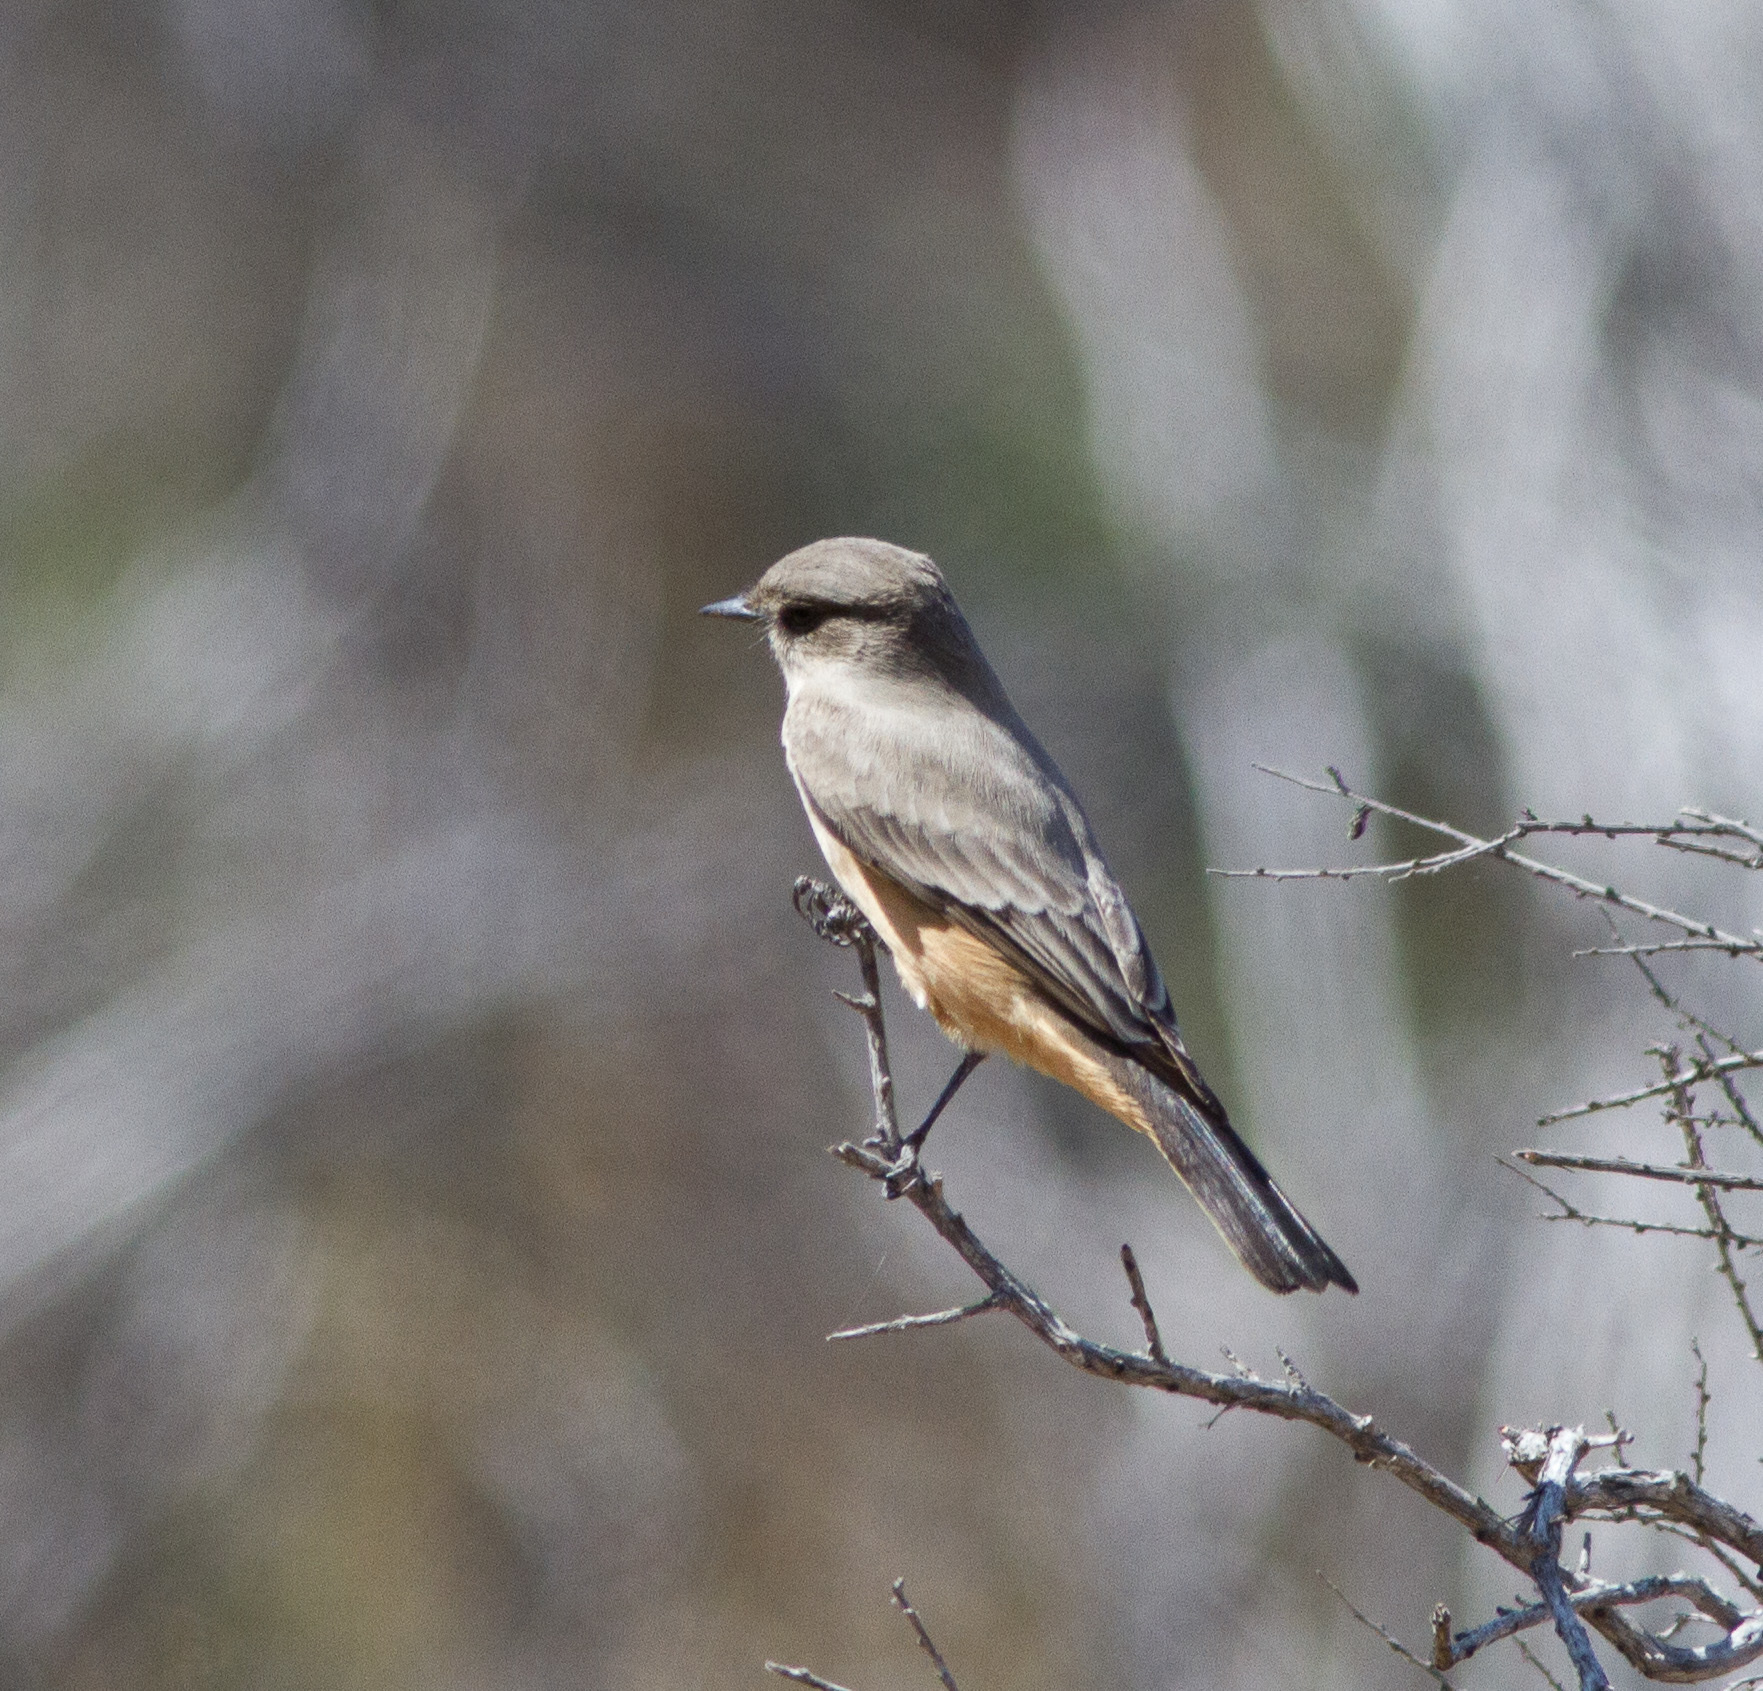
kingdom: Animalia
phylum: Chordata
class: Aves
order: Passeriformes
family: Tyrannidae
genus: Sayornis
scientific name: Sayornis saya
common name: Say's phoebe
